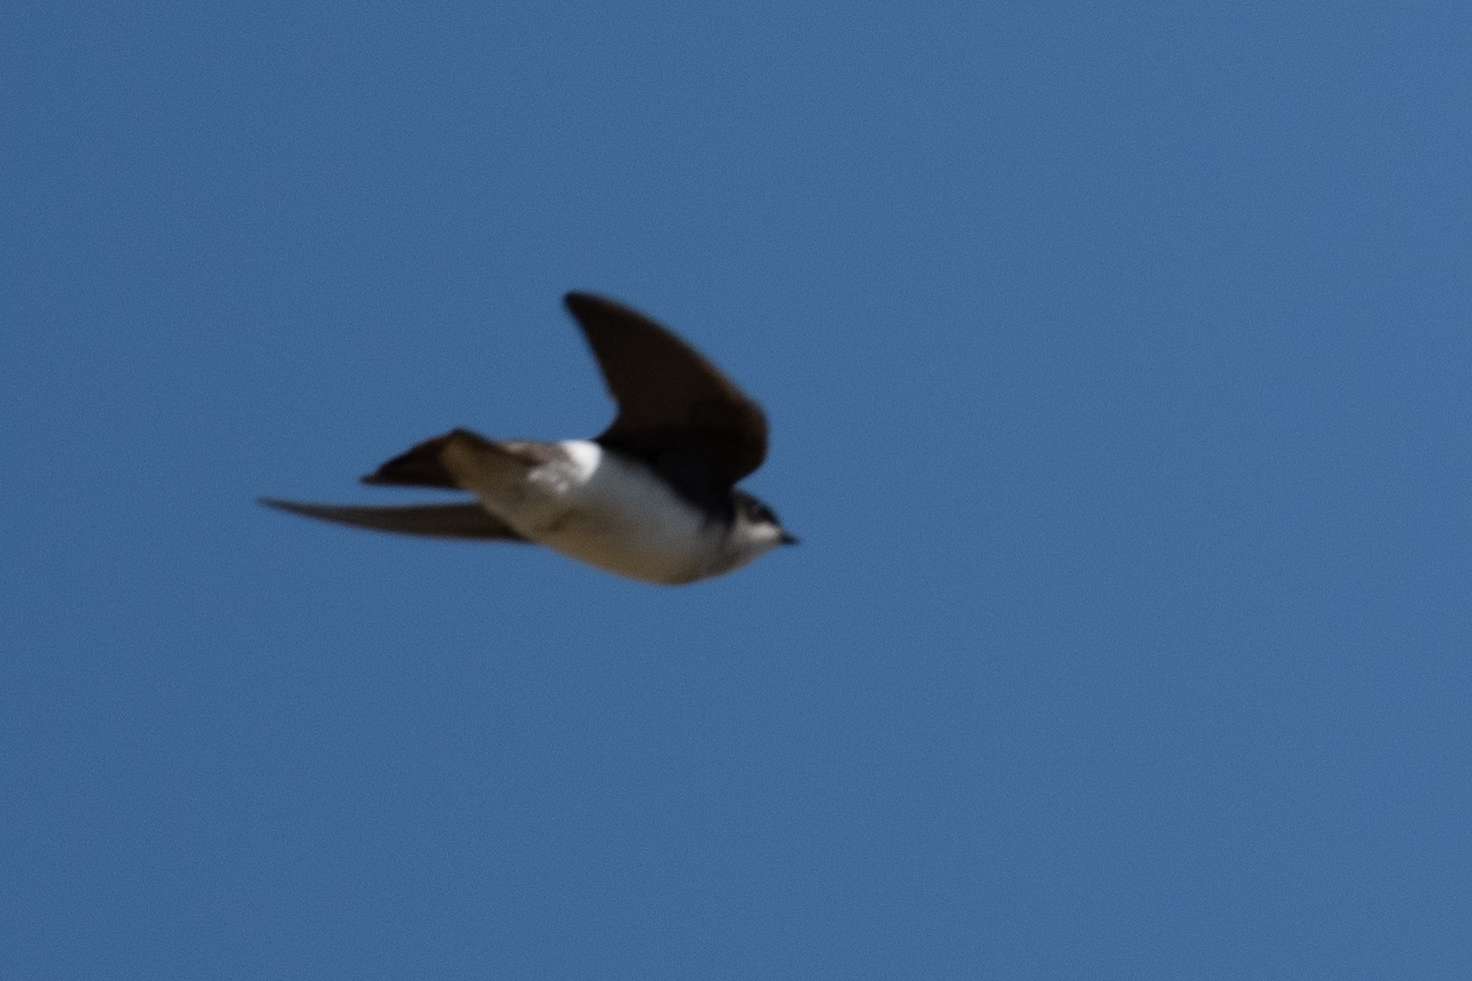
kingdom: Animalia
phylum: Chordata
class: Aves
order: Passeriformes
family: Hirundinidae
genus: Tachycineta
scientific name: Tachycineta bicolor
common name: Tree swallow
